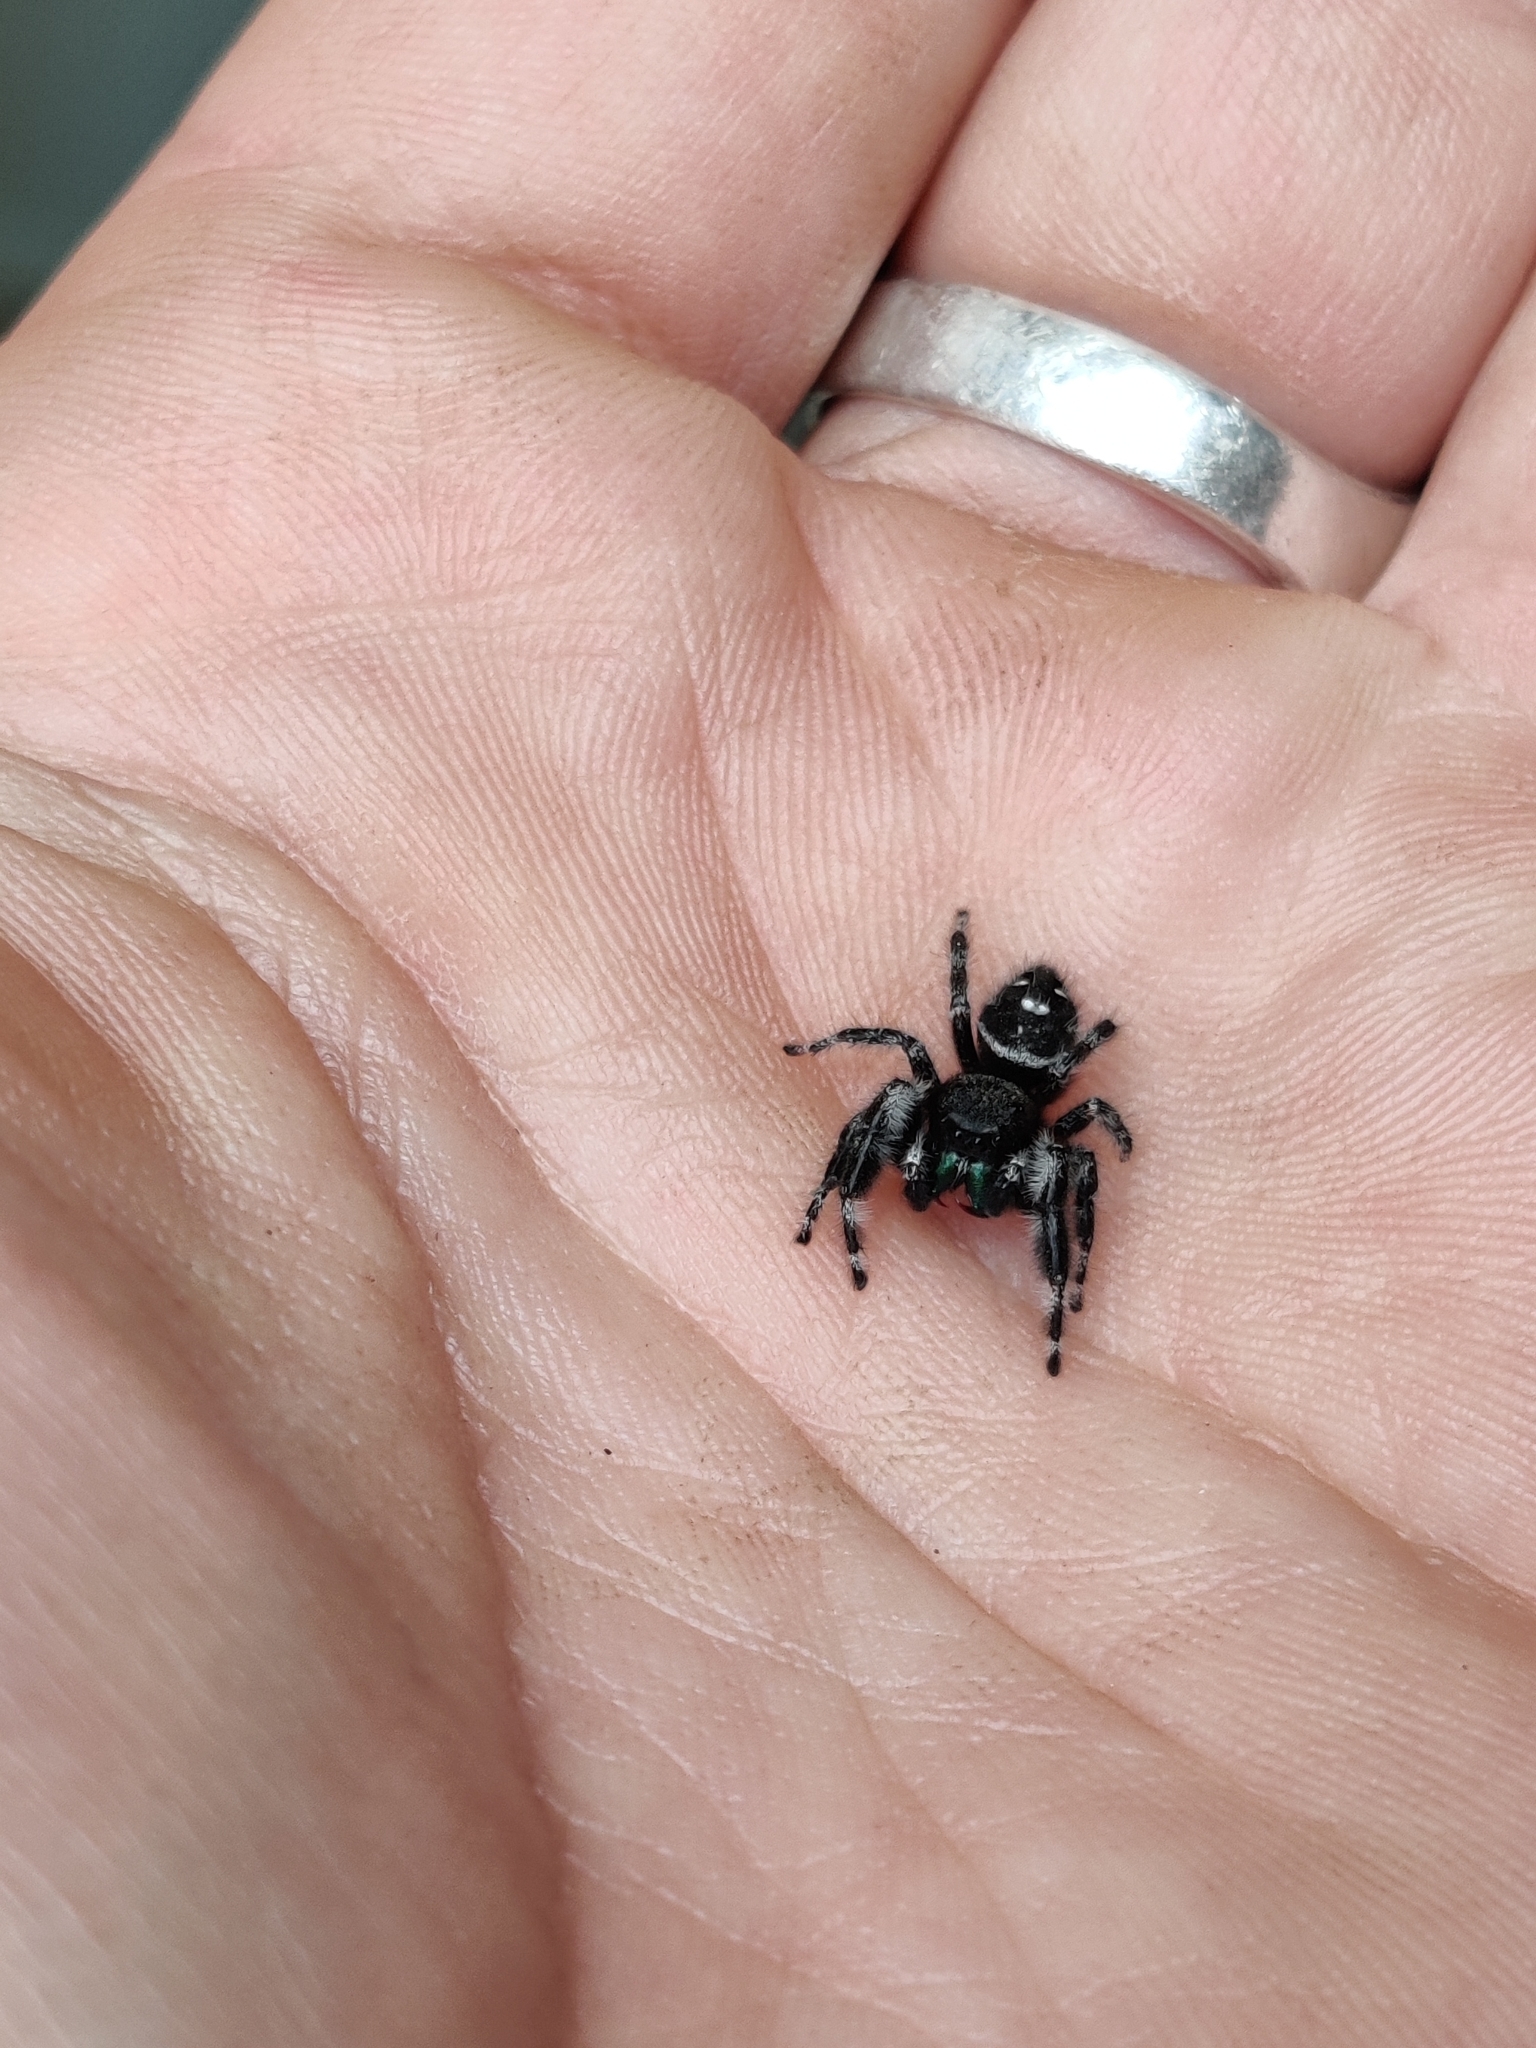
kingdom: Animalia
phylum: Arthropoda
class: Arachnida
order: Araneae
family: Salticidae
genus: Phidippus
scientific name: Phidippus audax
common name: Bold jumper
